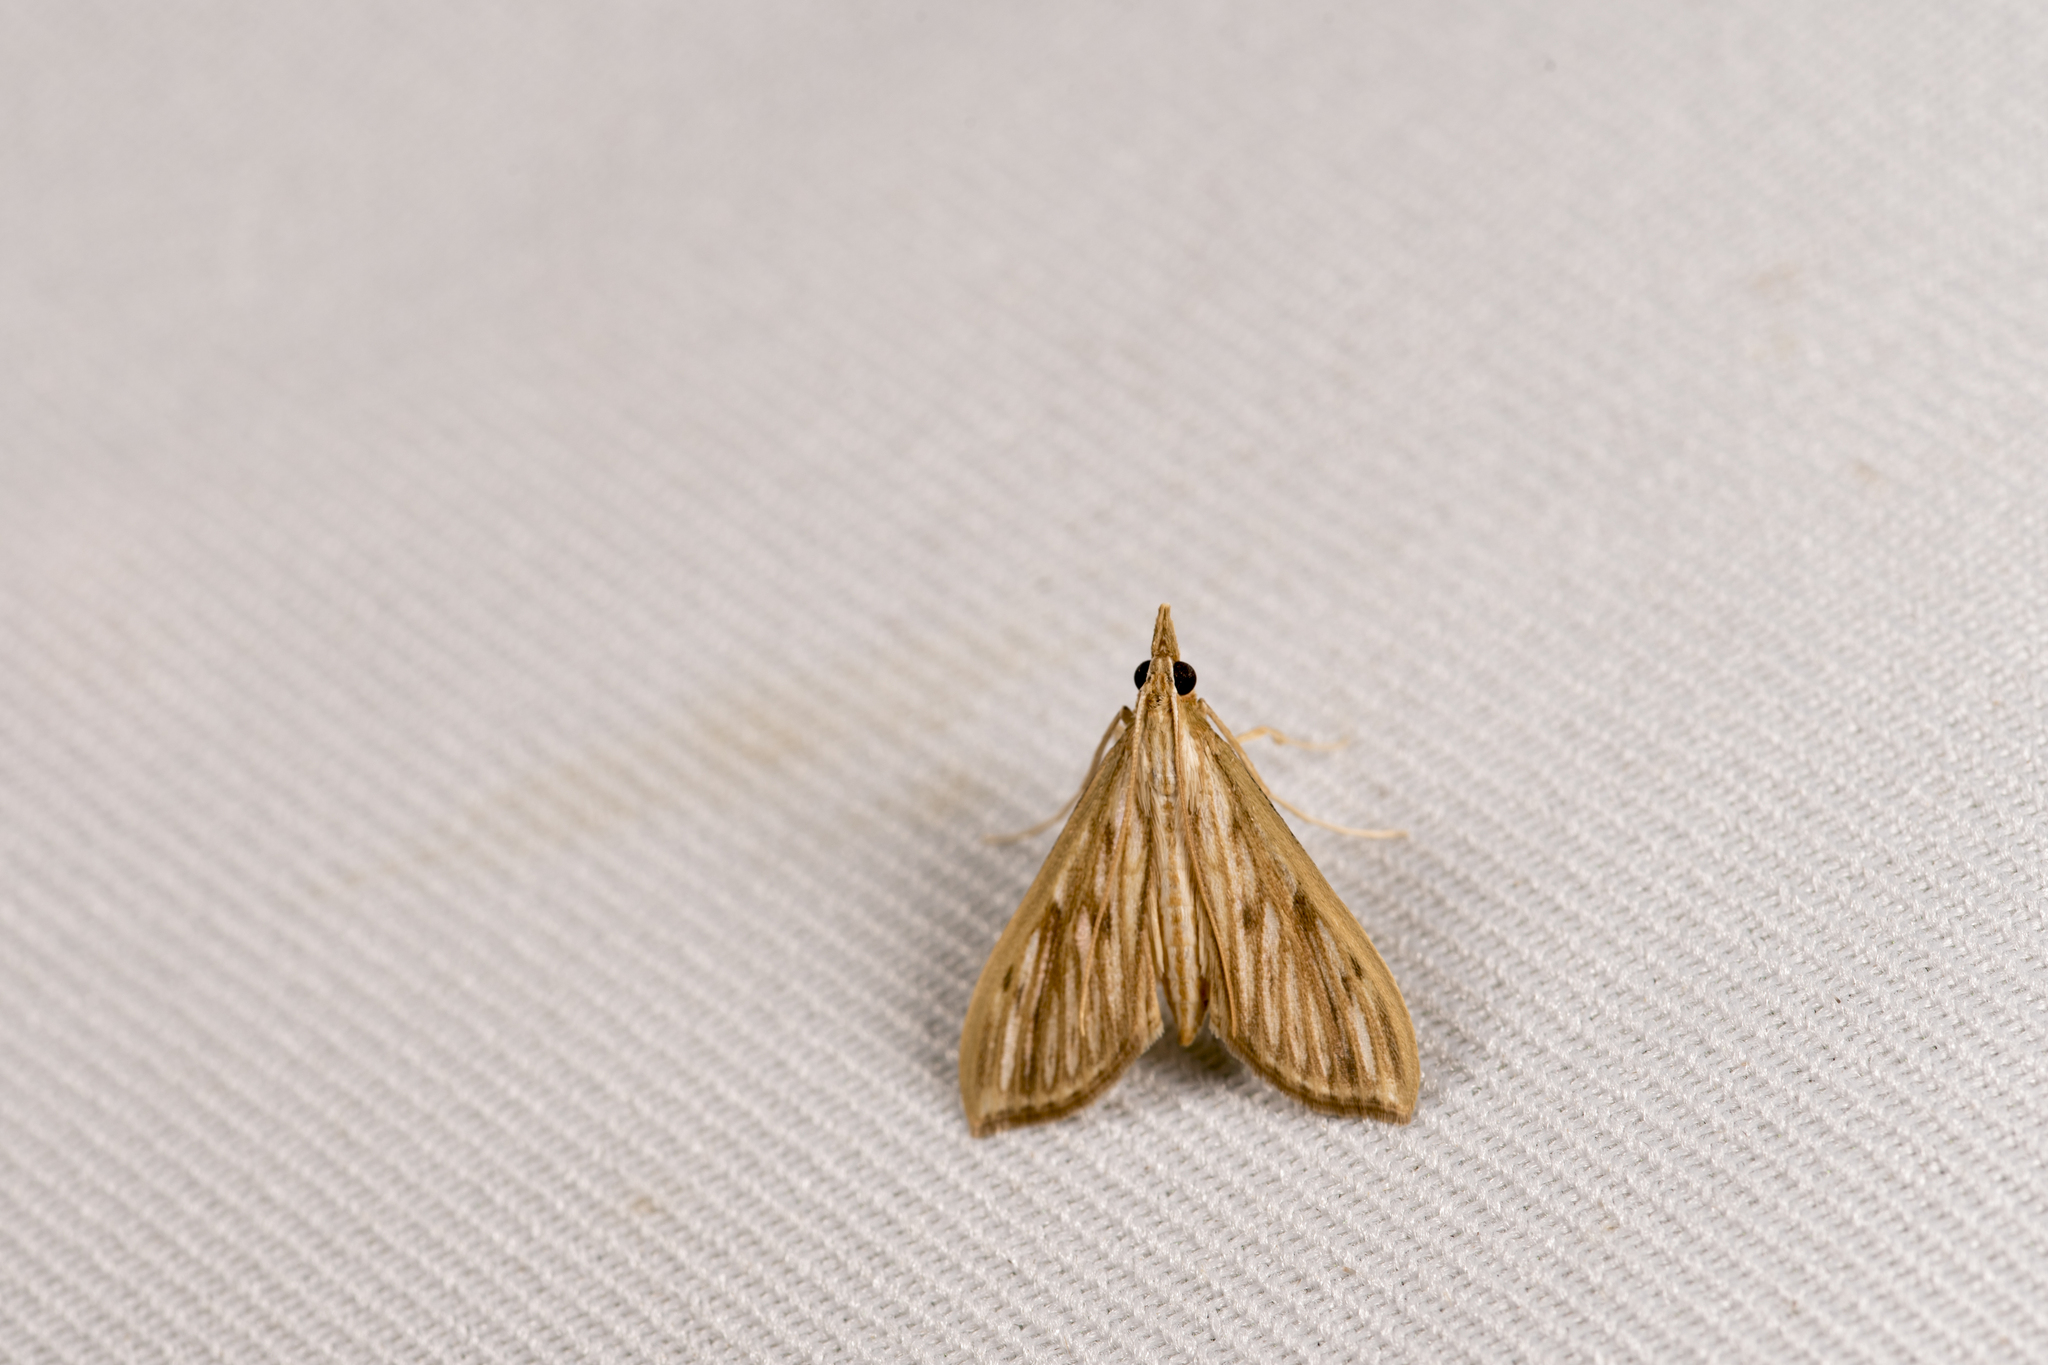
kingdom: Animalia
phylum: Arthropoda
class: Insecta
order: Lepidoptera
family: Crambidae
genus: Antigastra
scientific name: Antigastra catalaunalis
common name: Spanish dot
